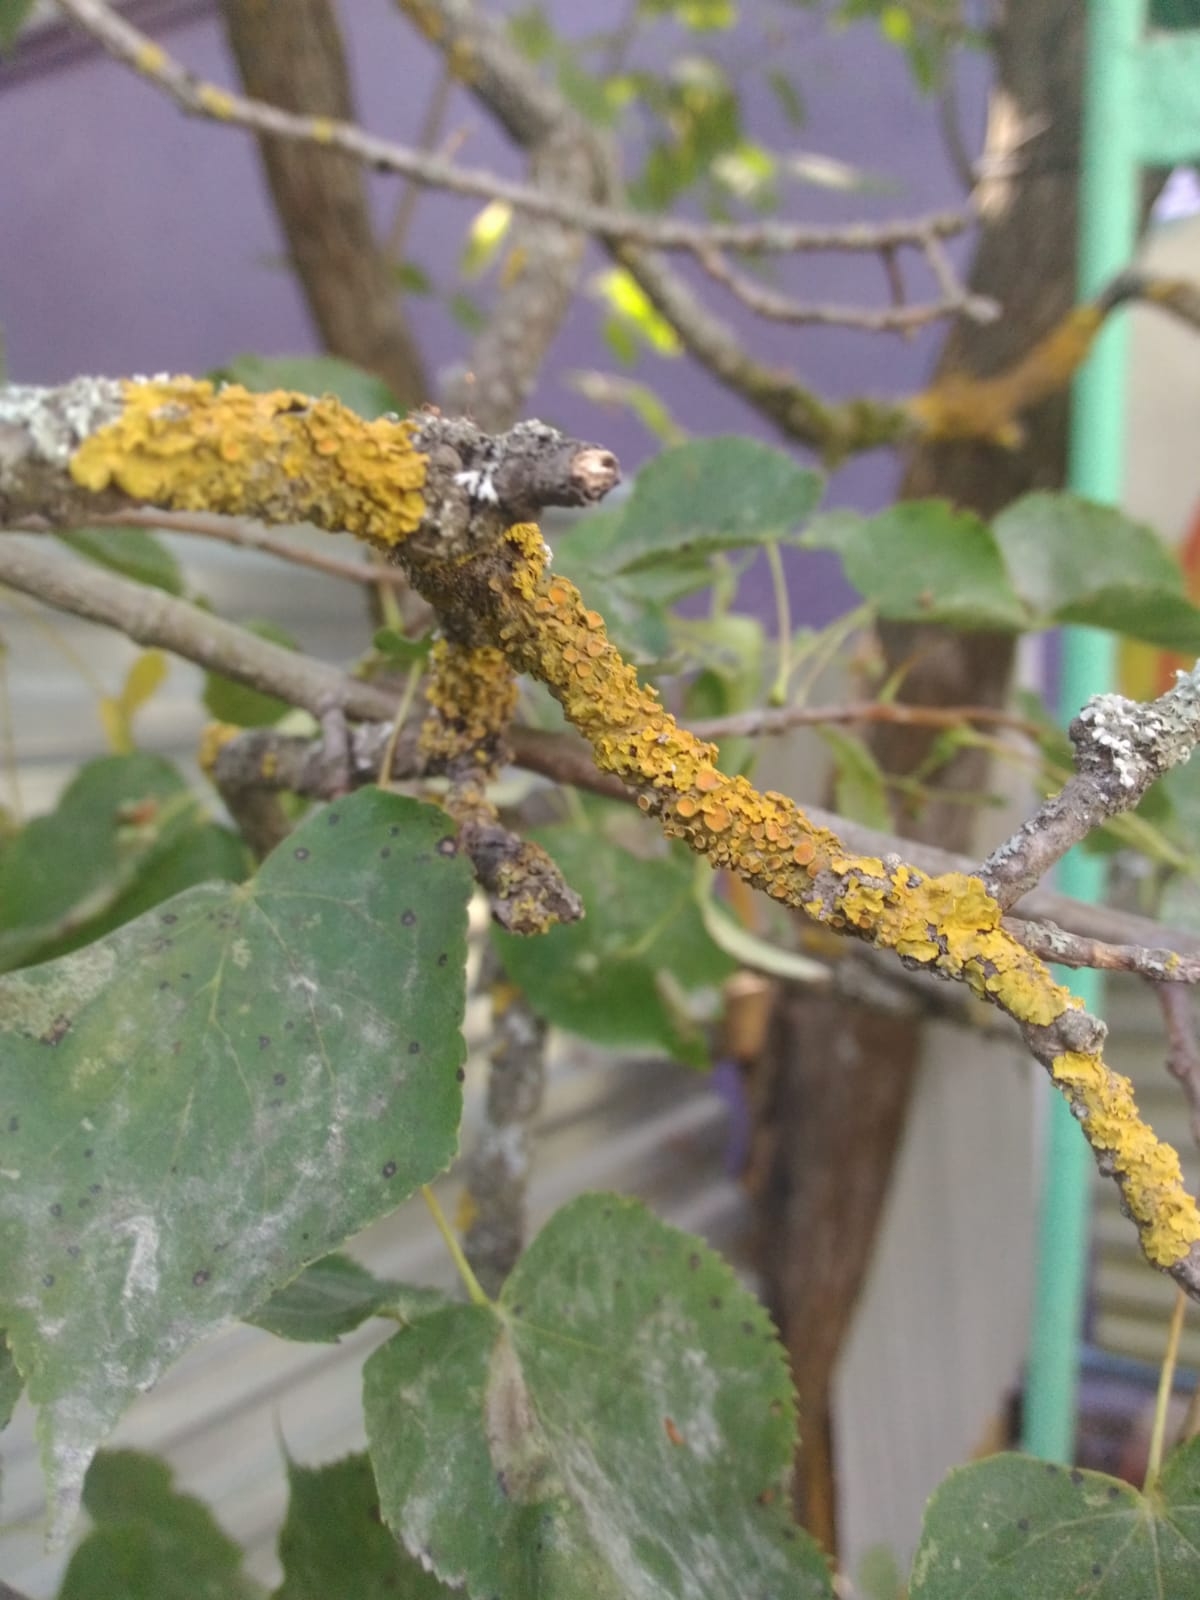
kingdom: Fungi
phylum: Ascomycota
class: Lecanoromycetes
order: Teloschistales
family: Teloschistaceae
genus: Xanthoria
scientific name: Xanthoria parietina
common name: Common orange lichen
